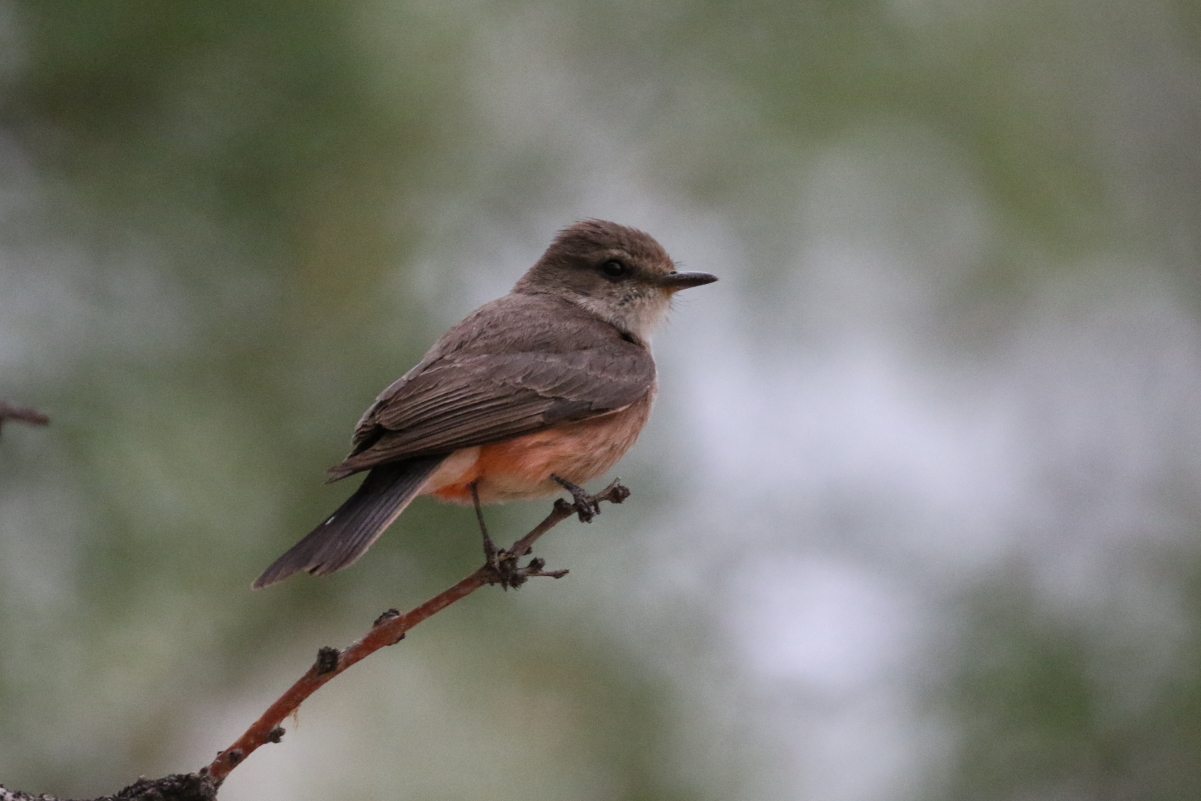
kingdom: Animalia
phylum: Chordata
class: Aves
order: Passeriformes
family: Tyrannidae
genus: Pyrocephalus
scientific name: Pyrocephalus rubinus
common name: Vermilion flycatcher
